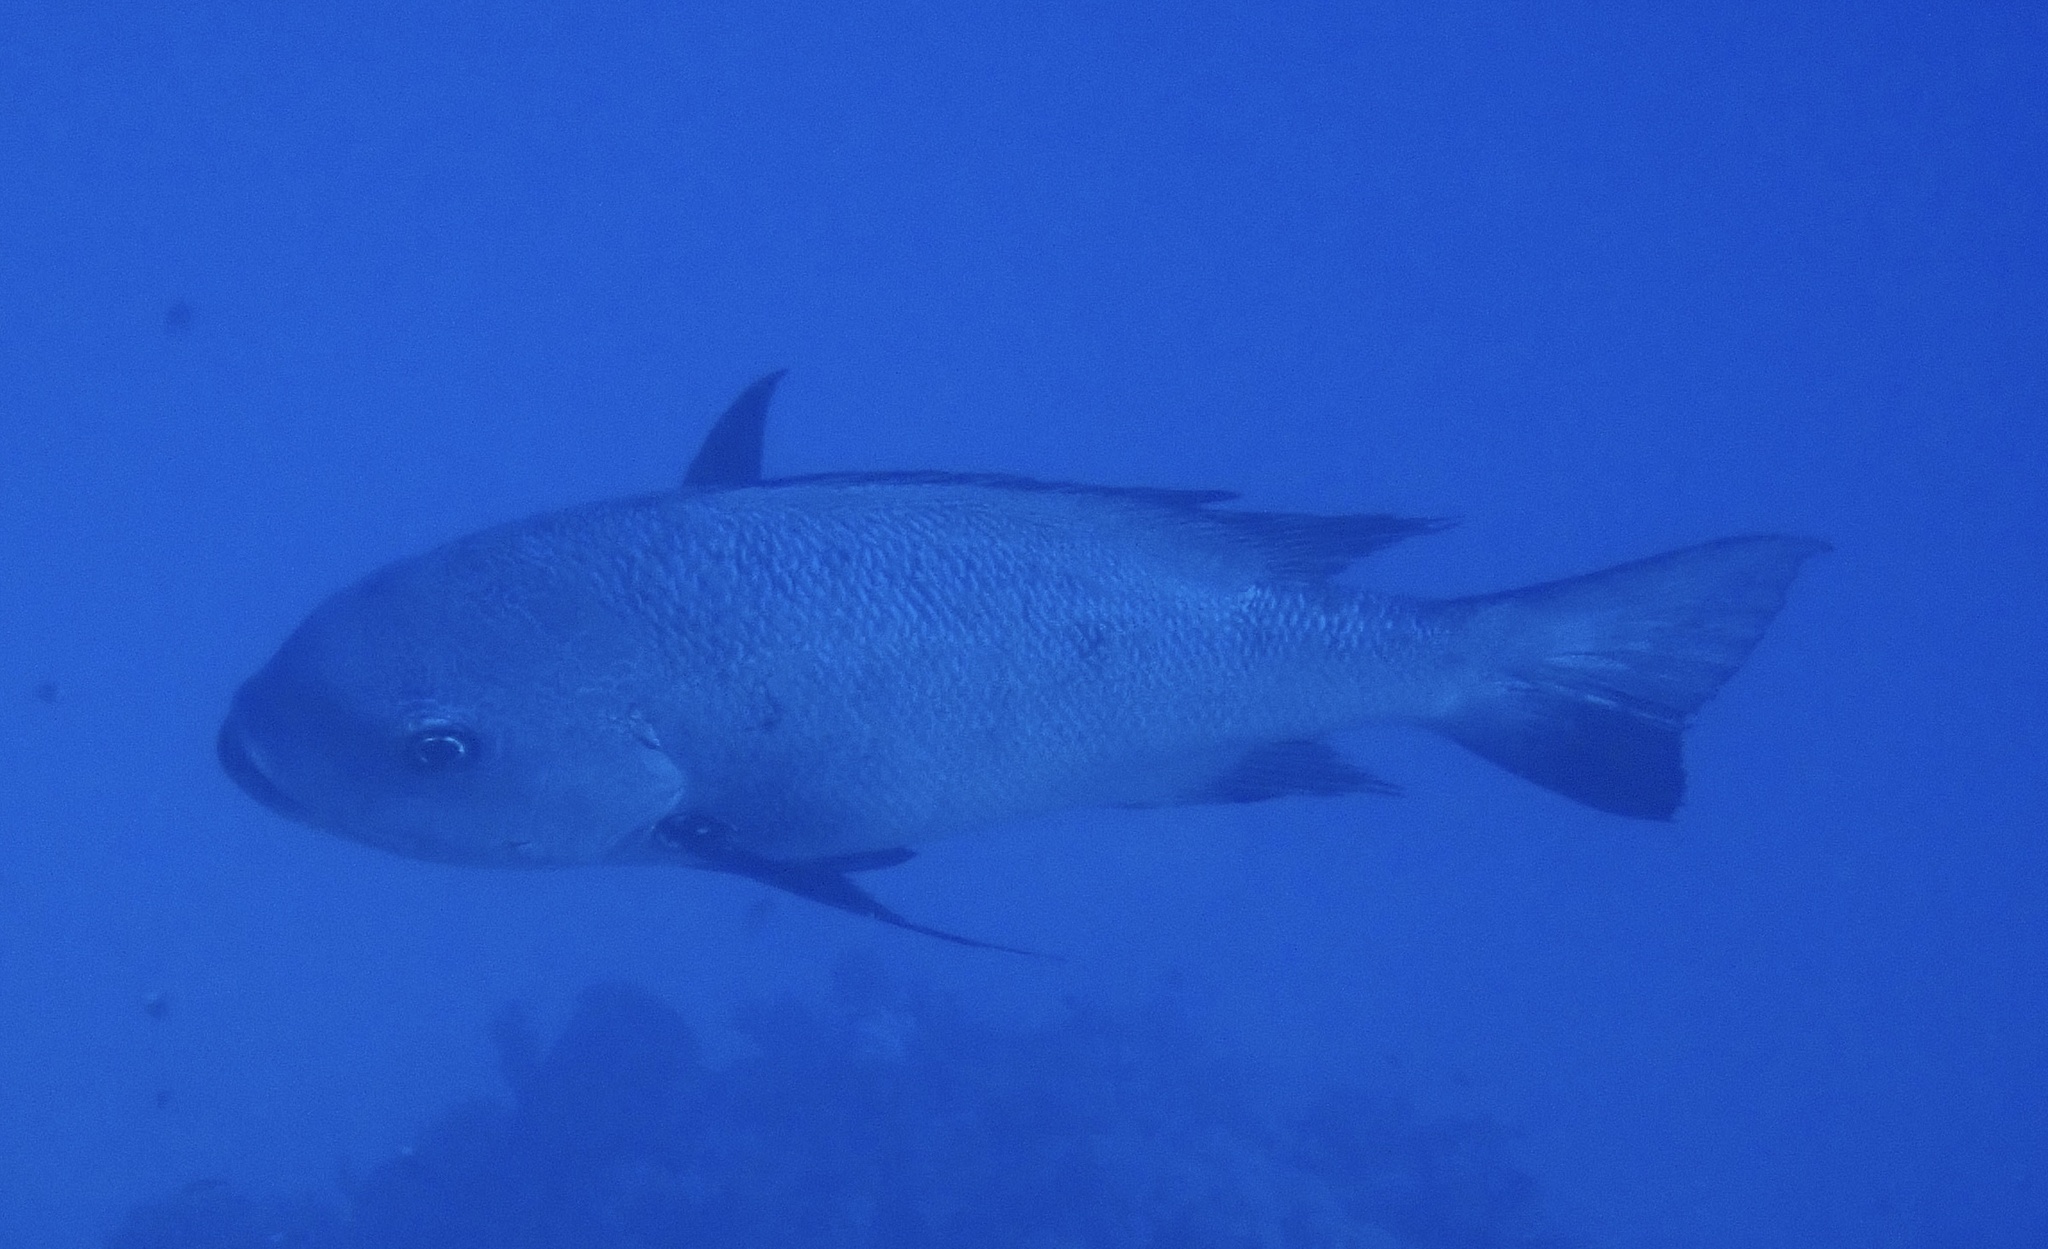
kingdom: Animalia
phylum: Chordata
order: Perciformes
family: Lutjanidae
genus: Macolor
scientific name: Macolor niger
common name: Black snapper
